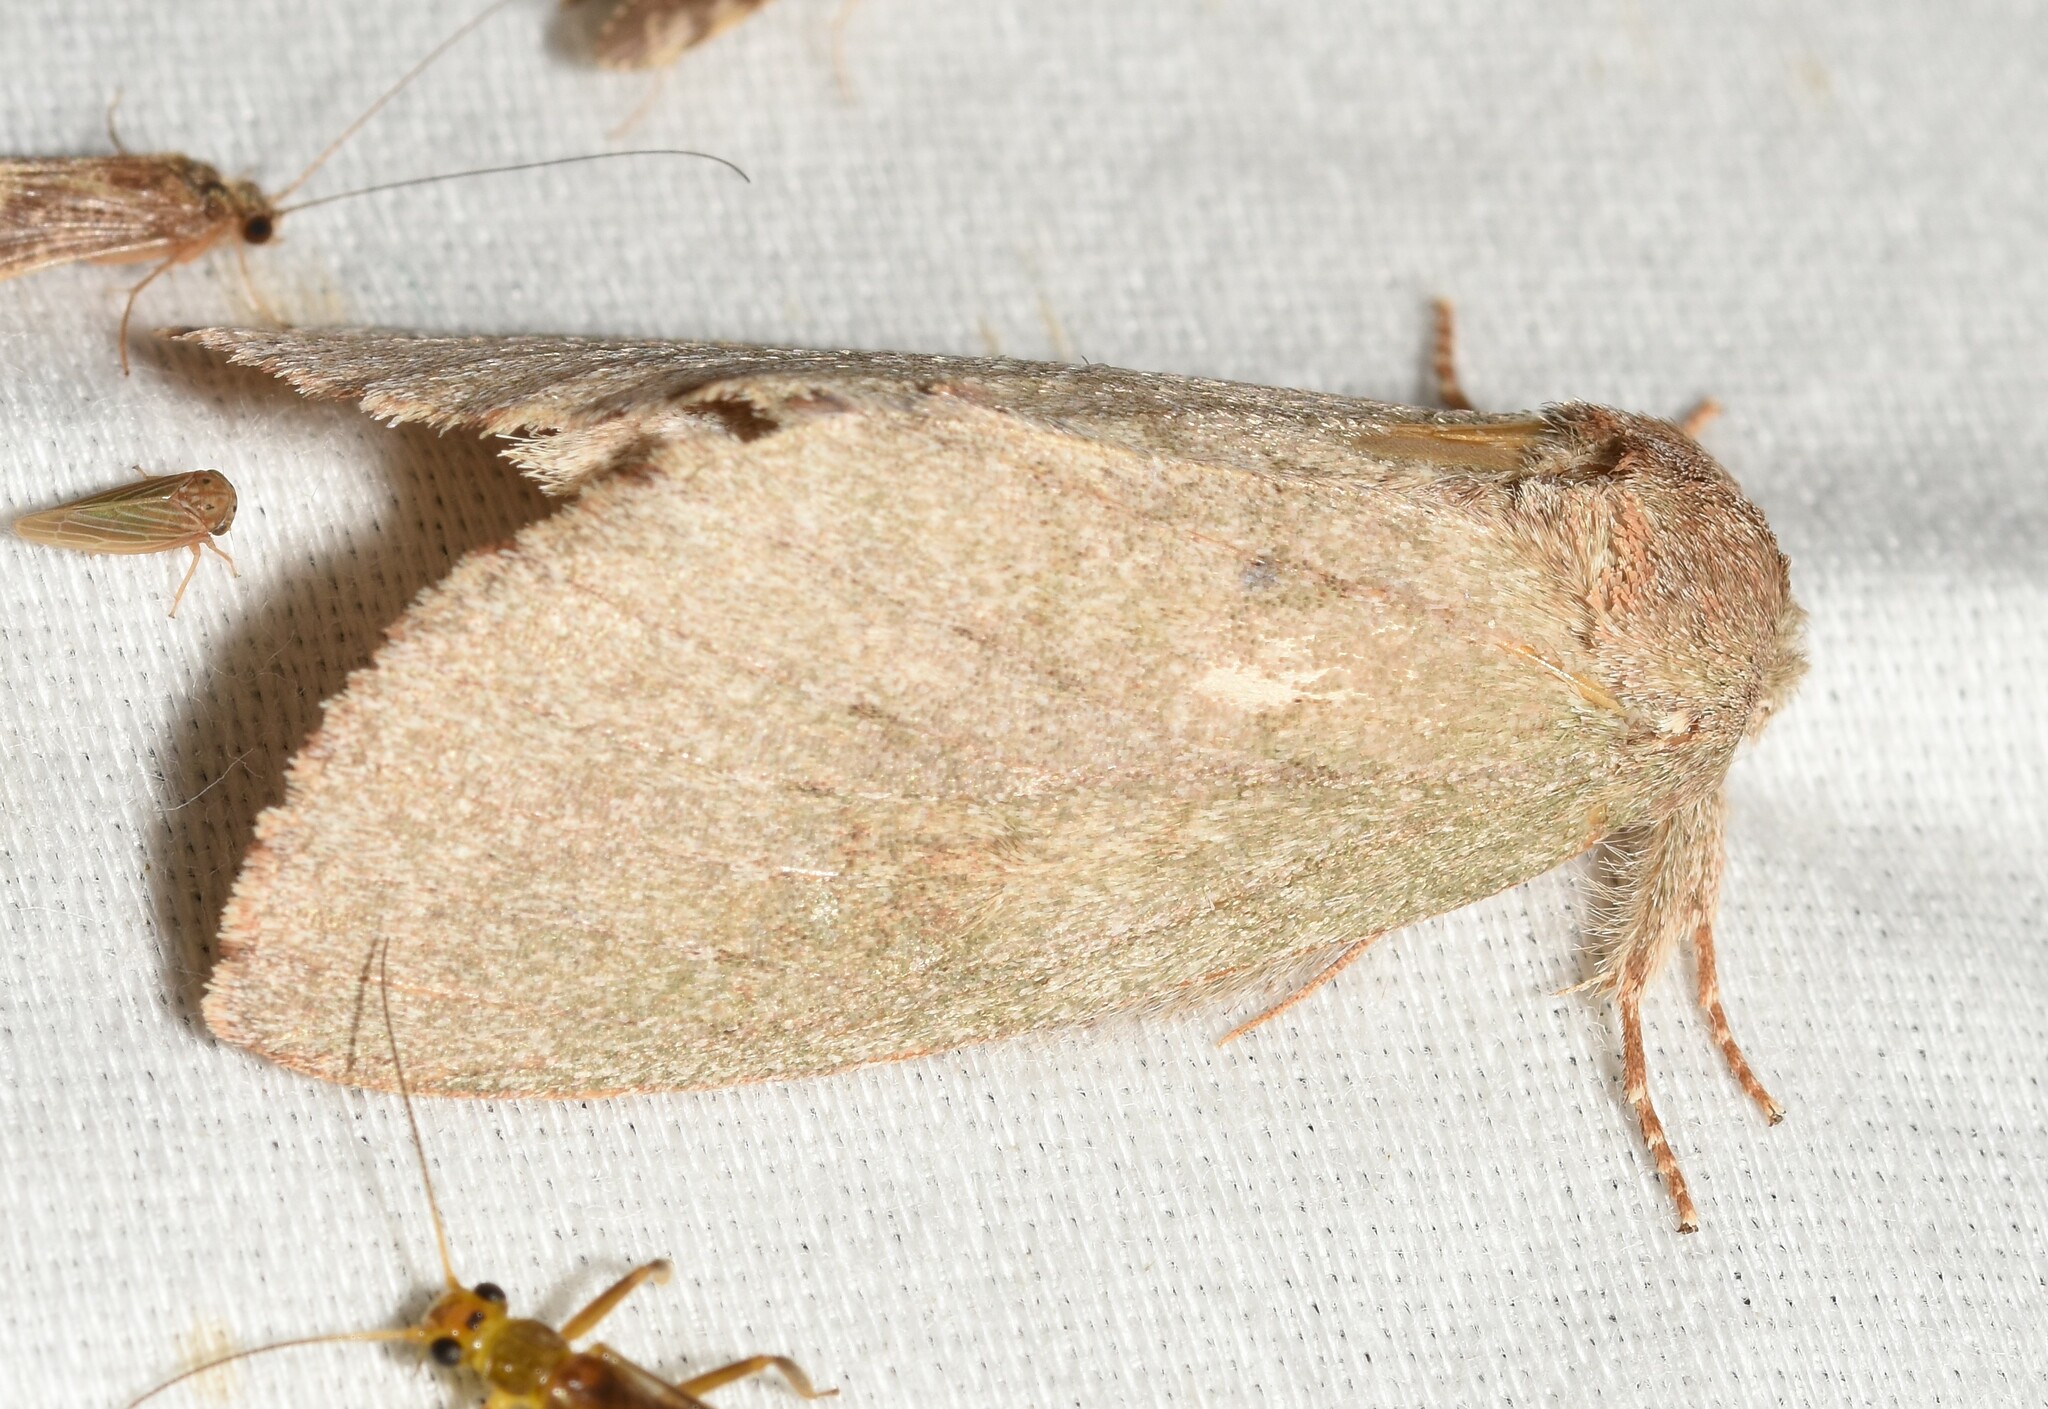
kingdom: Animalia
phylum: Arthropoda
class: Insecta
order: Lepidoptera
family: Notodontidae
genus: Misogada
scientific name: Misogada unicolor
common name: Drab prominent
